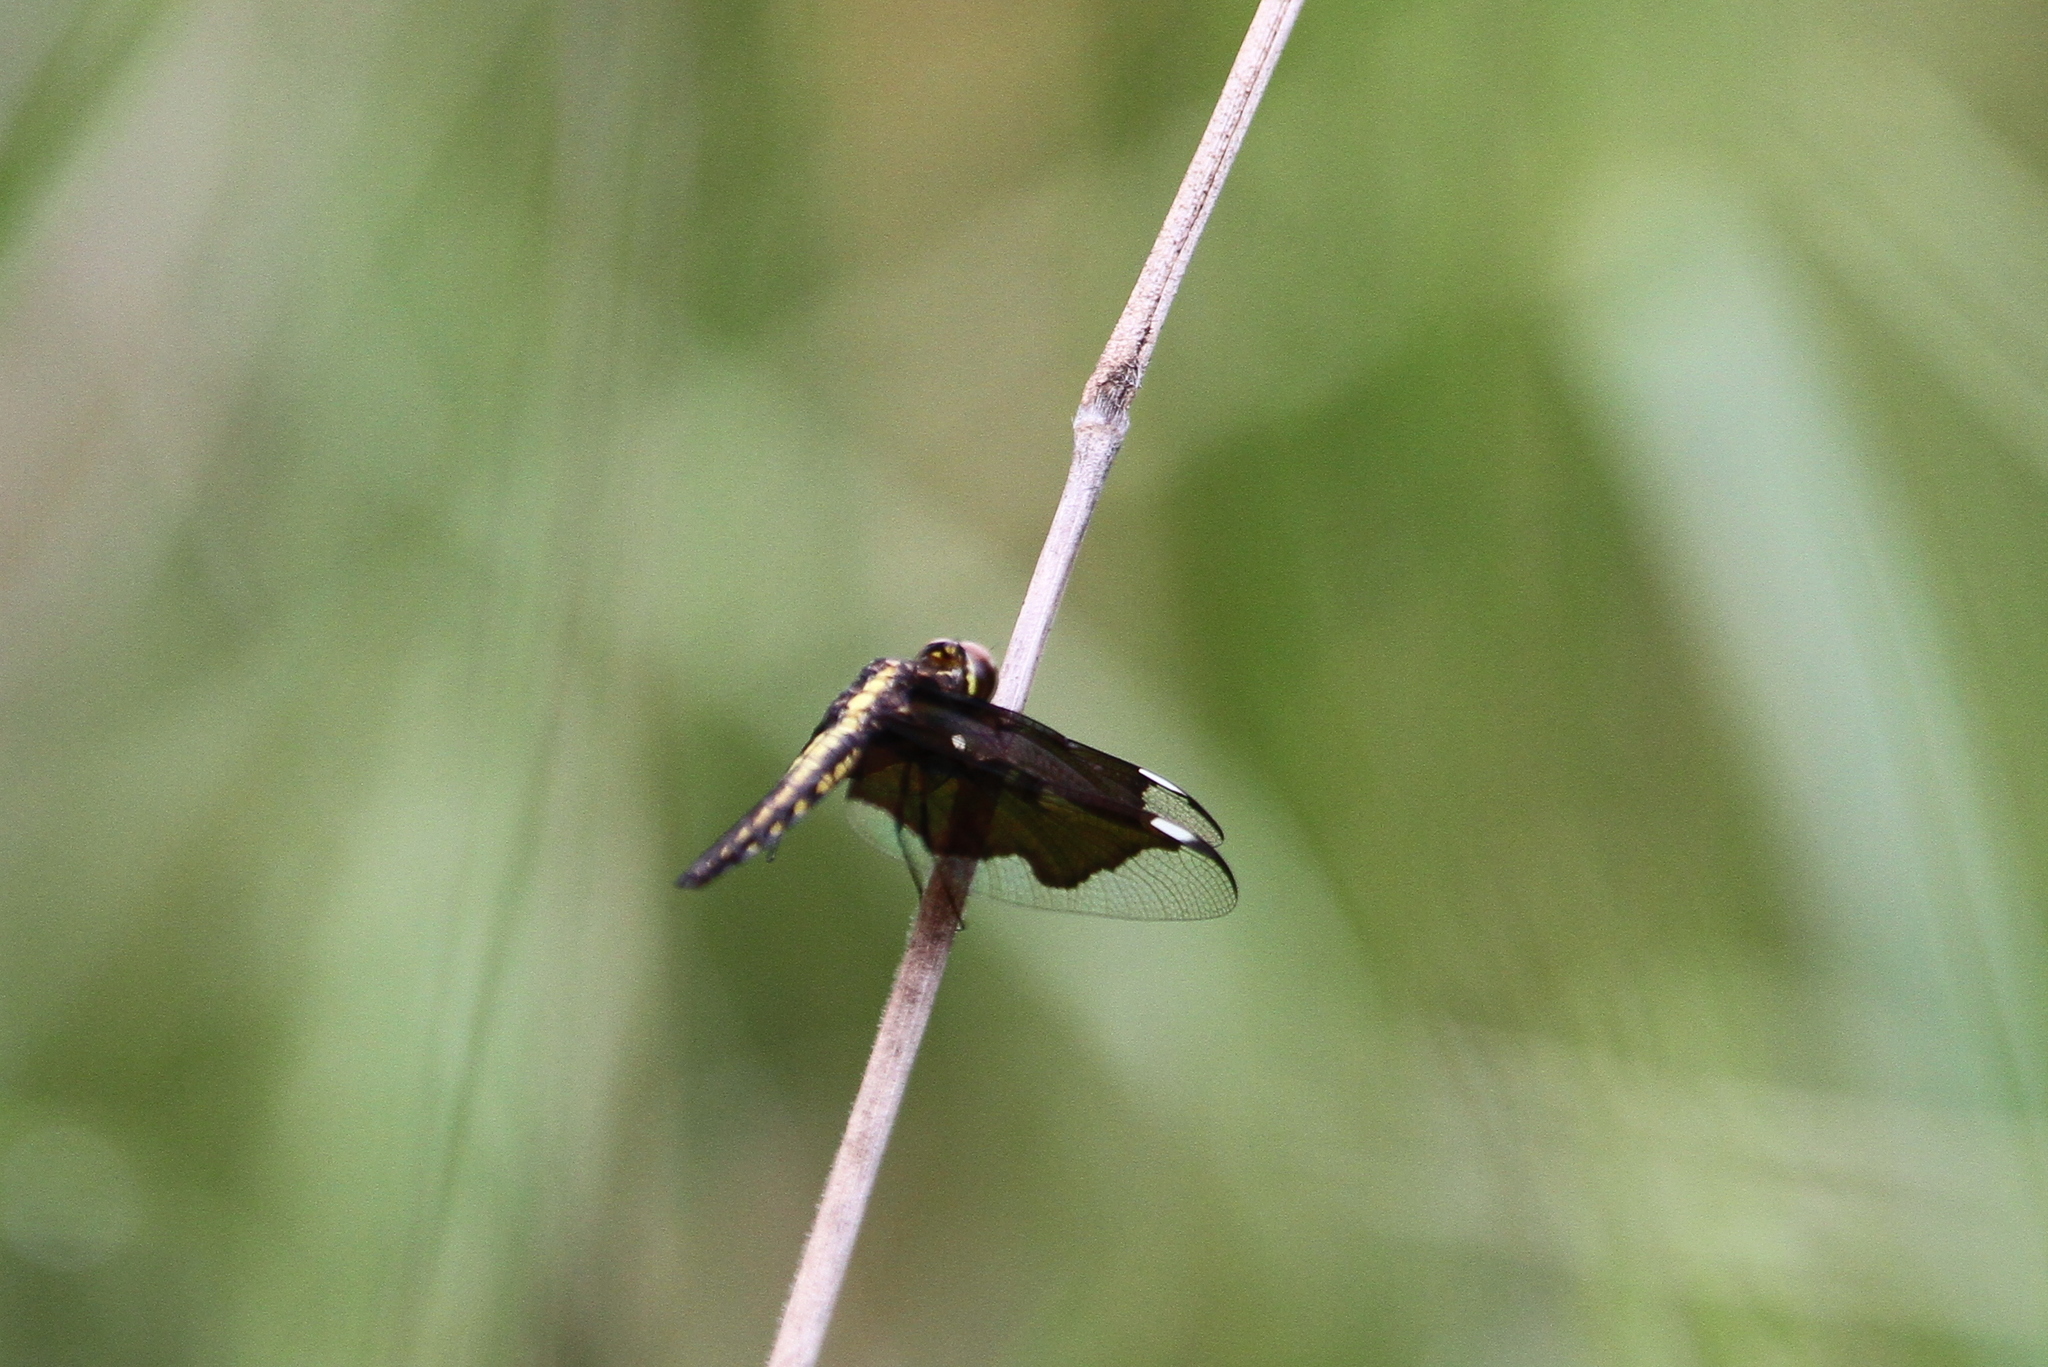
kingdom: Animalia
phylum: Arthropoda
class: Insecta
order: Odonata
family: Libellulidae
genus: Palpopleura
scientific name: Palpopleura lucia
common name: Lucia widow
